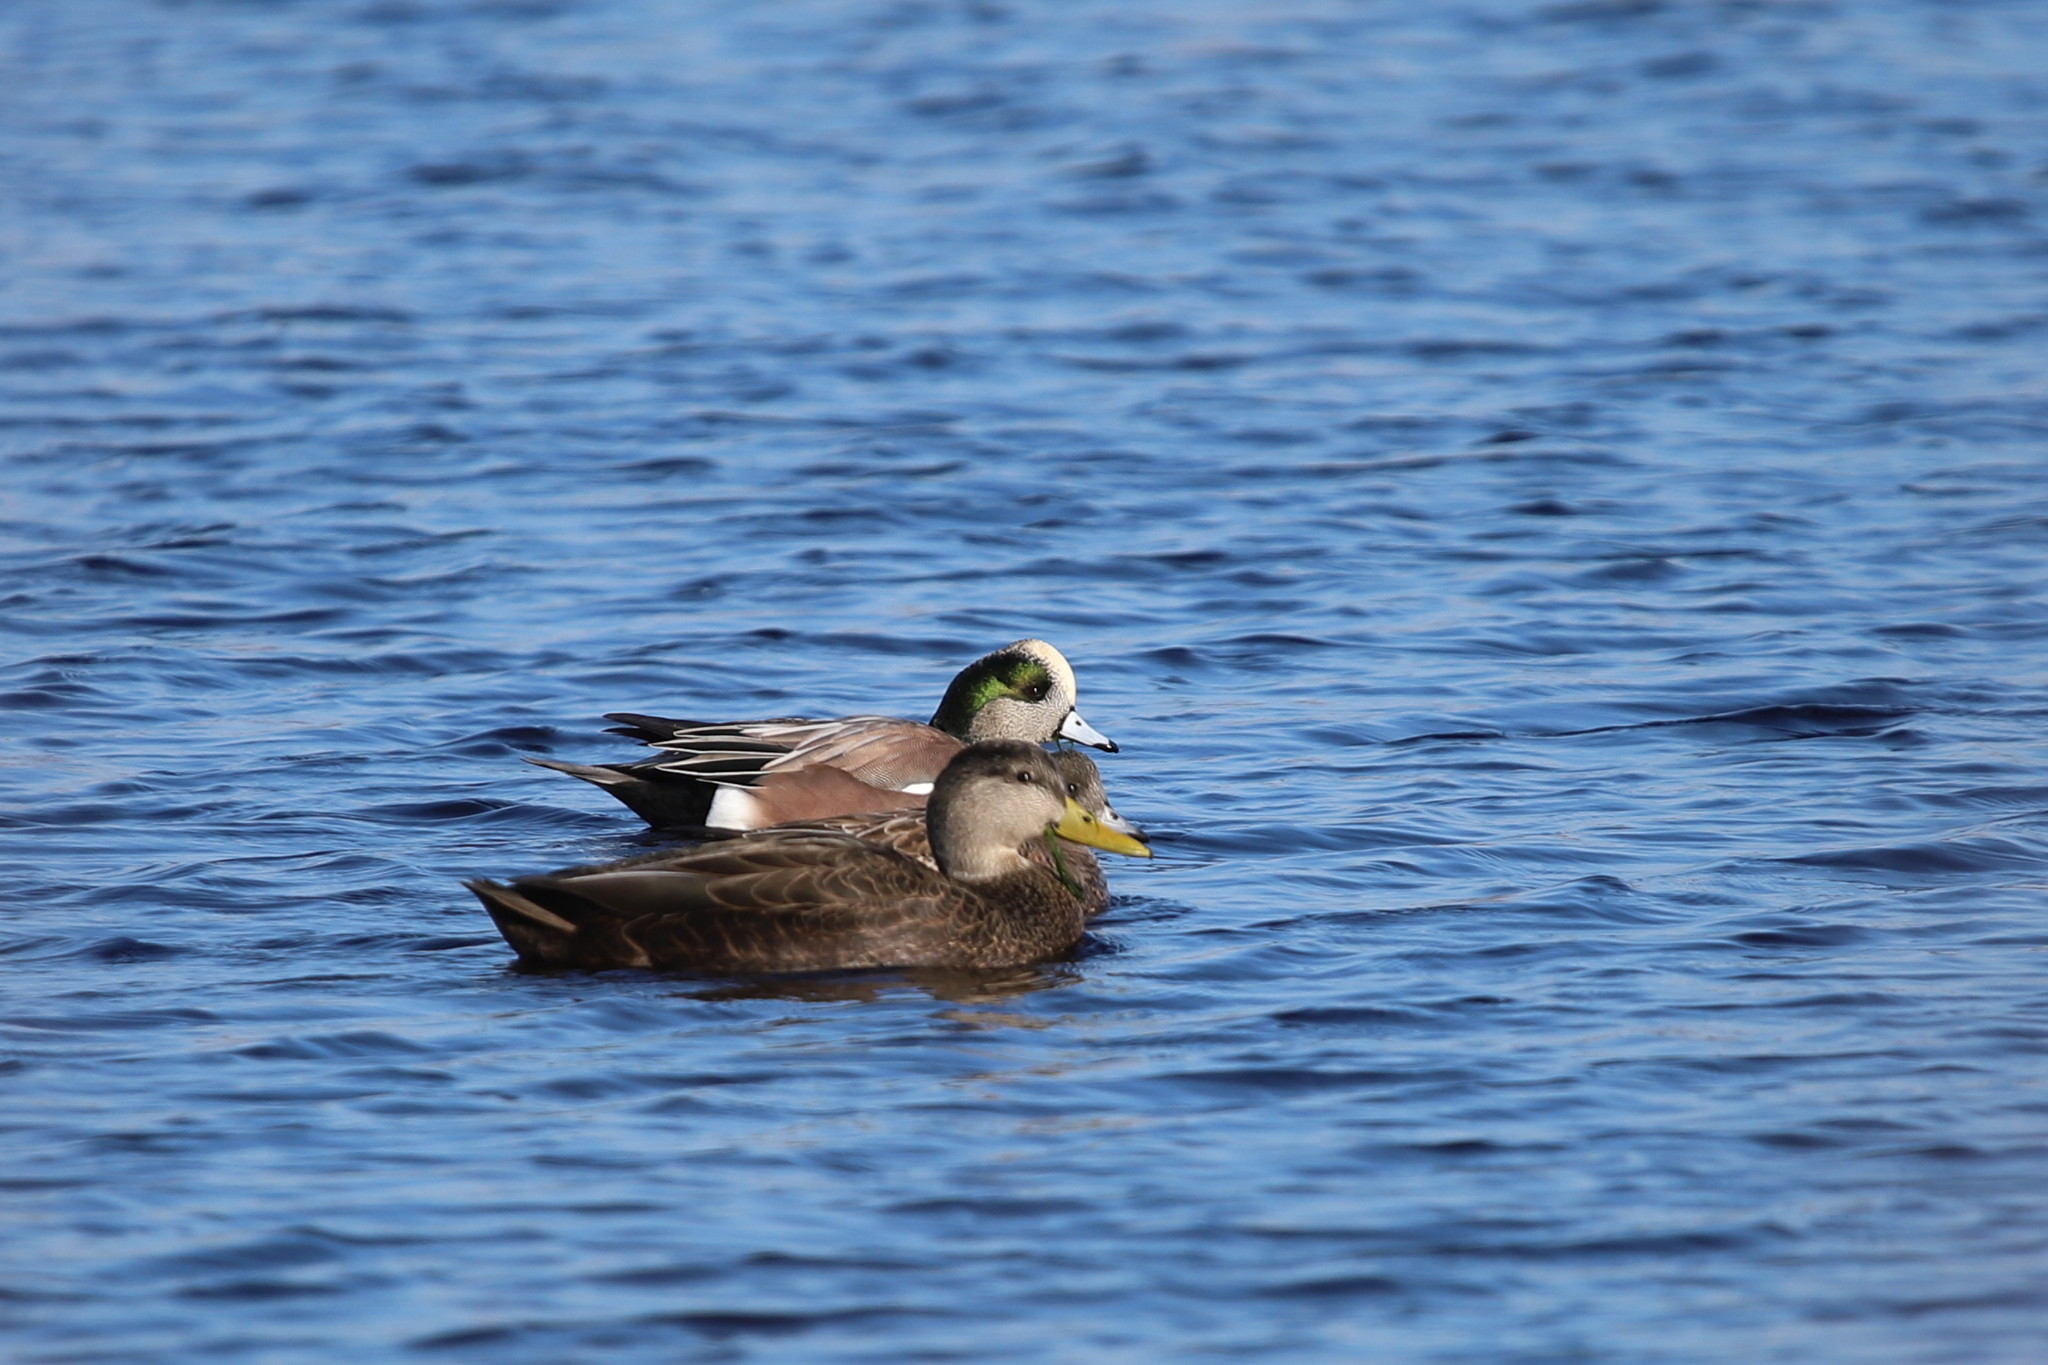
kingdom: Animalia
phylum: Chordata
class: Aves
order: Anseriformes
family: Anatidae
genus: Mareca
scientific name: Mareca americana
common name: American wigeon
